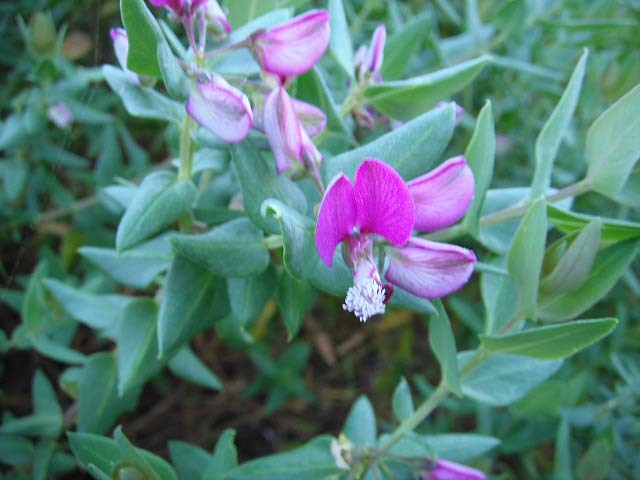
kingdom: Plantae
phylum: Tracheophyta
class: Magnoliopsida
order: Fabales
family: Polygalaceae
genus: Polygala
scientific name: Polygala fruticosa
